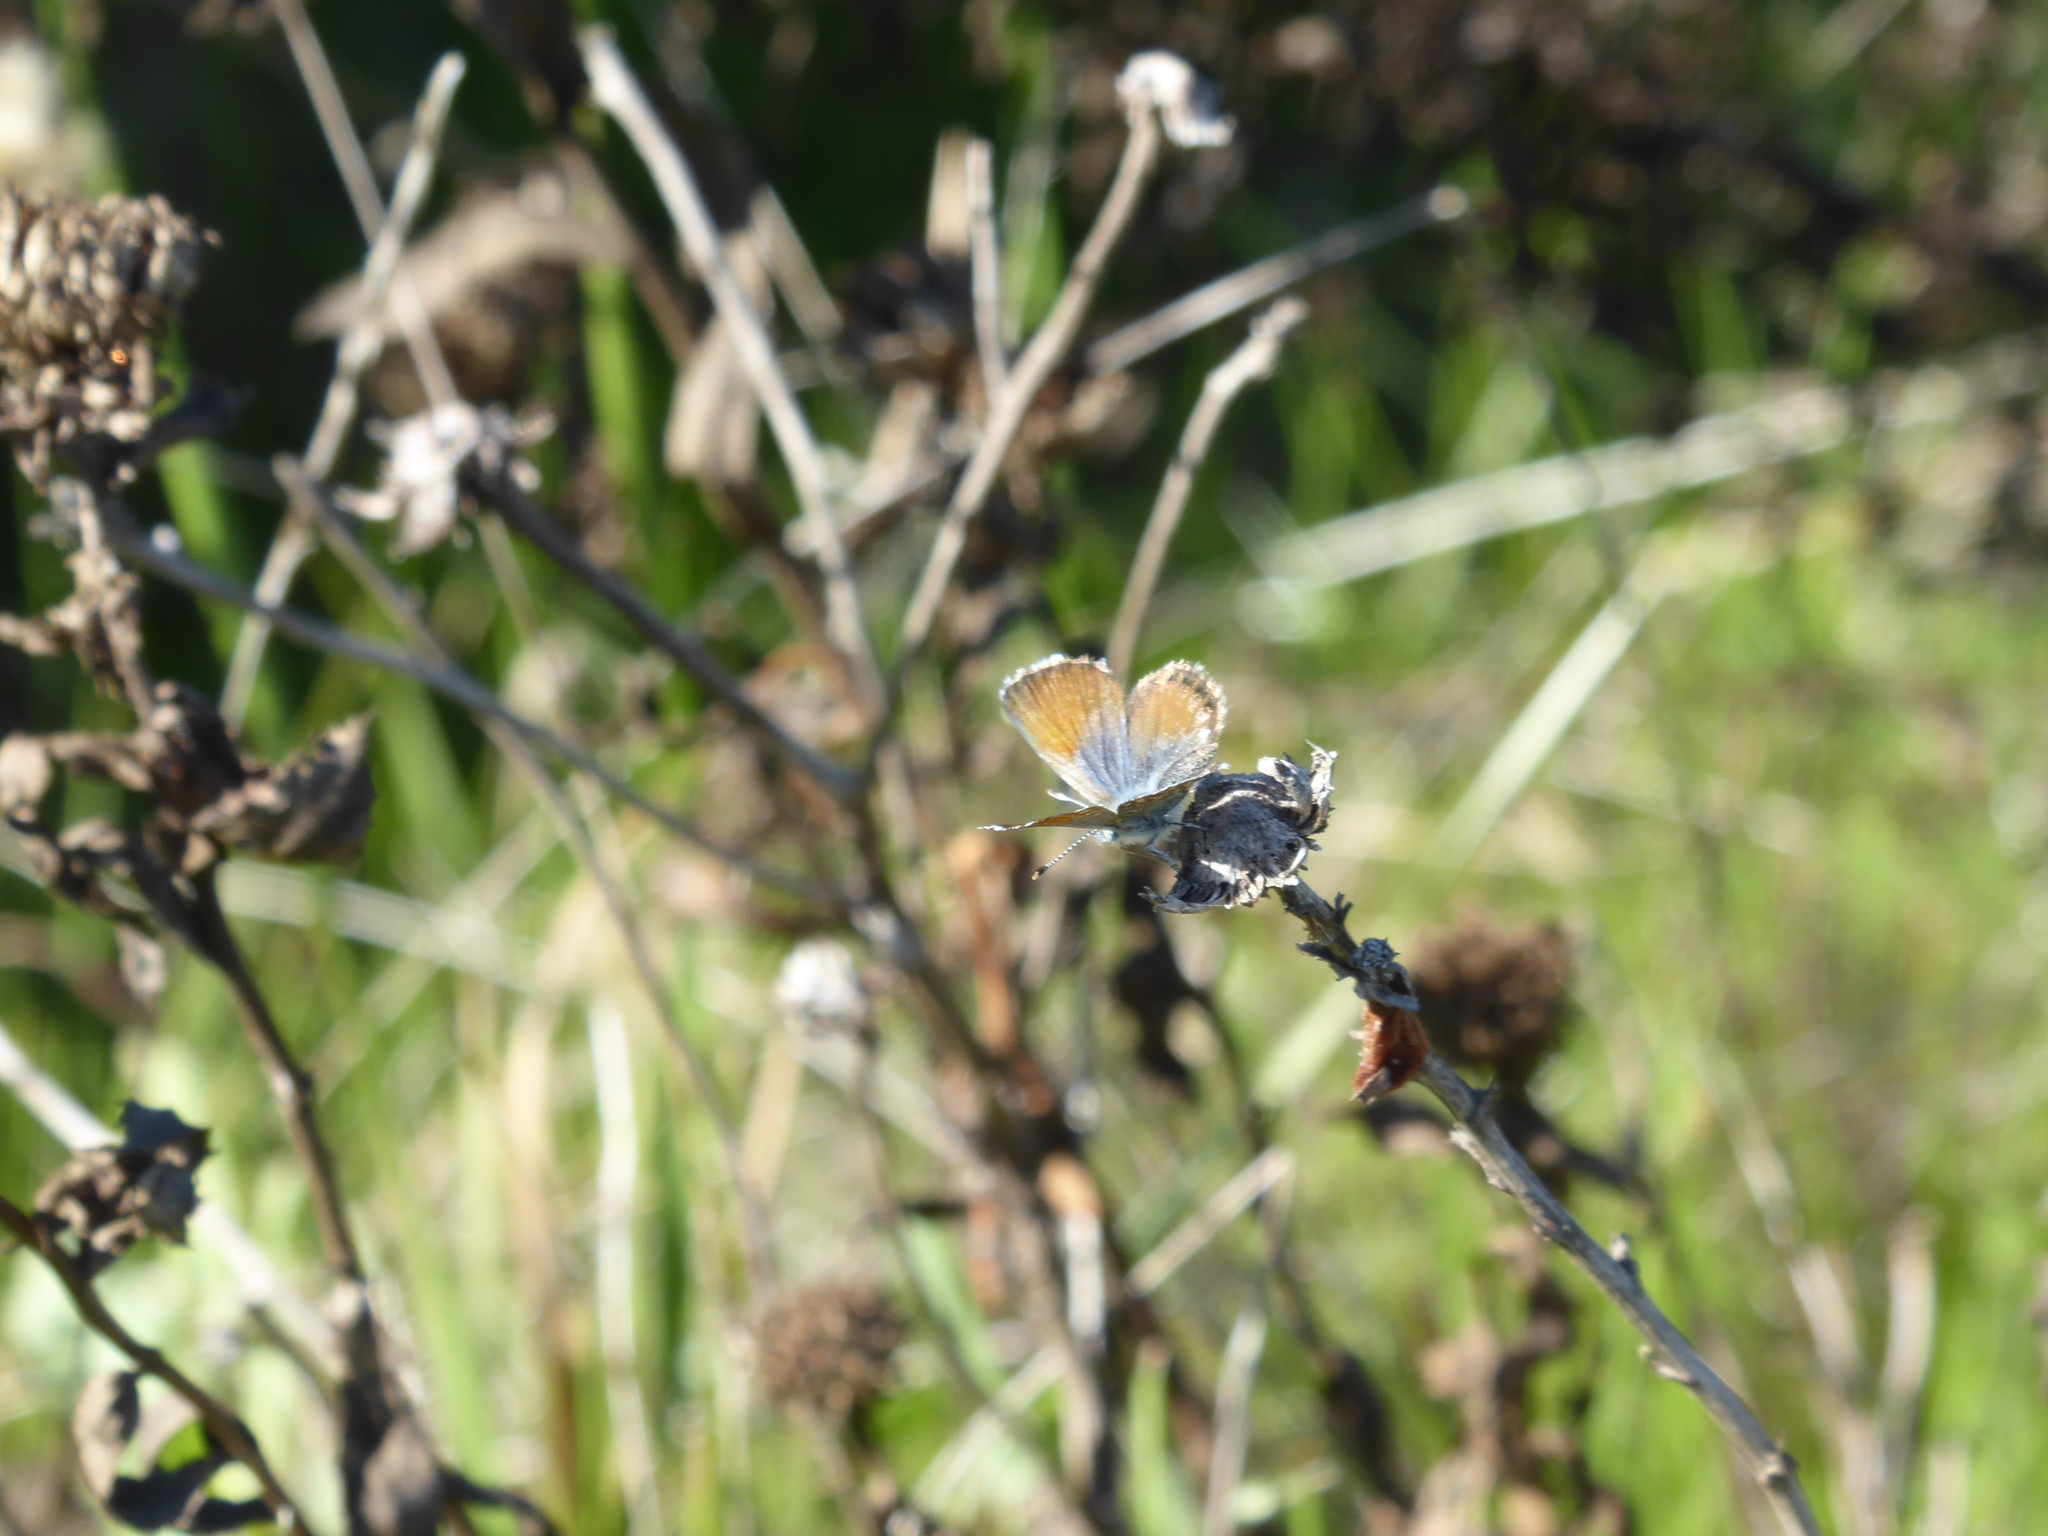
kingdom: Animalia
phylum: Arthropoda
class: Insecta
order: Lepidoptera
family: Lycaenidae
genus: Brephidium
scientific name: Brephidium exilis
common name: Pygmy blue
